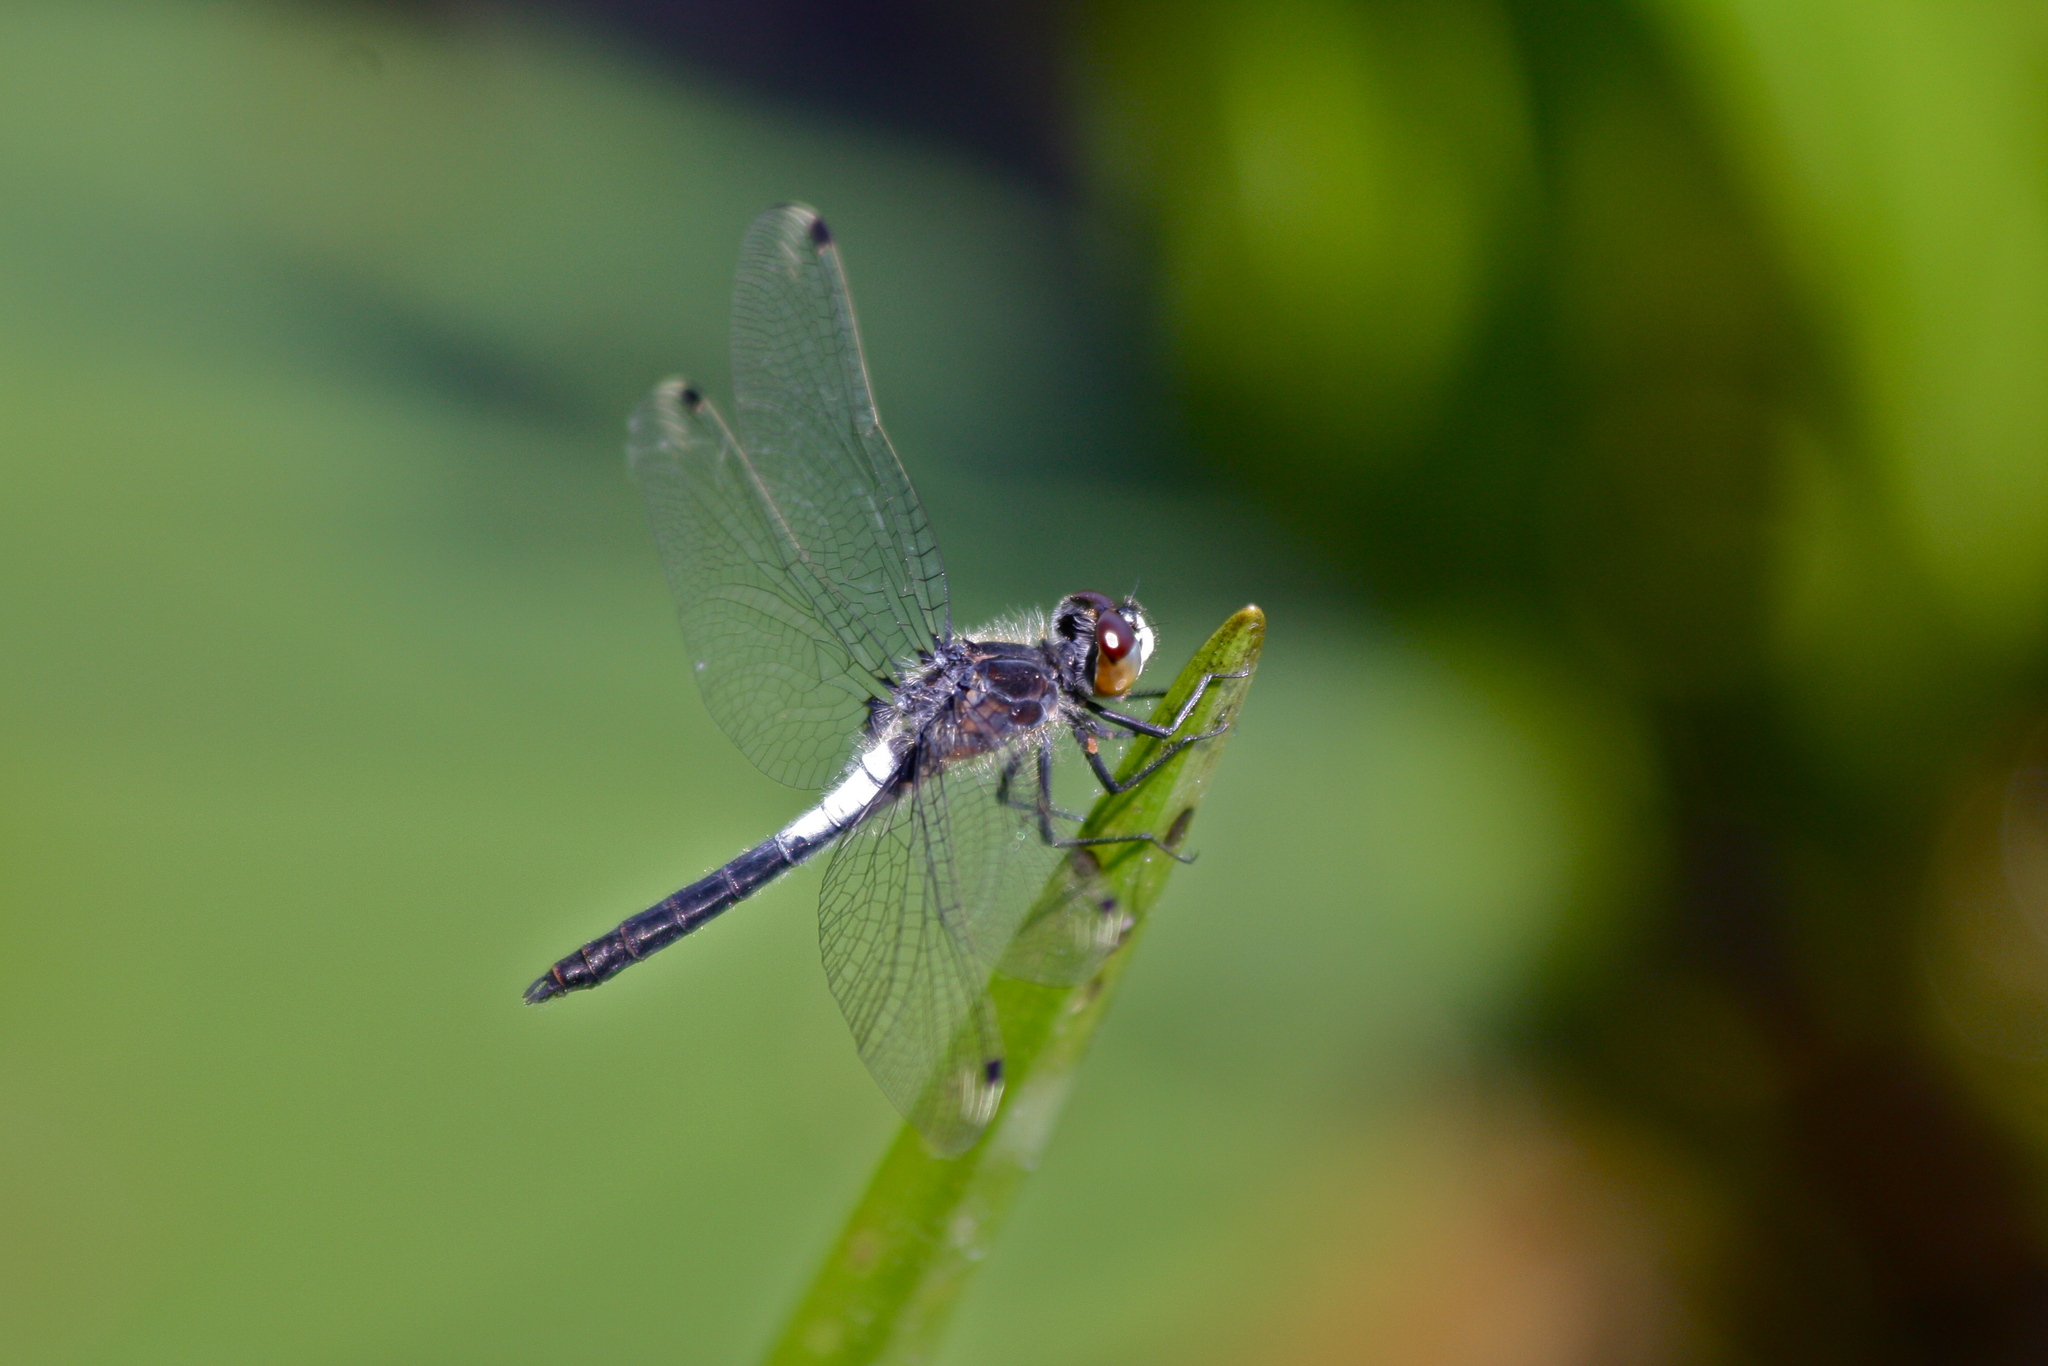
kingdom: Animalia
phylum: Arthropoda
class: Insecta
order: Odonata
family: Libellulidae
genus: Leucorrhinia
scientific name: Leucorrhinia frigida
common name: Frosted whiteface
